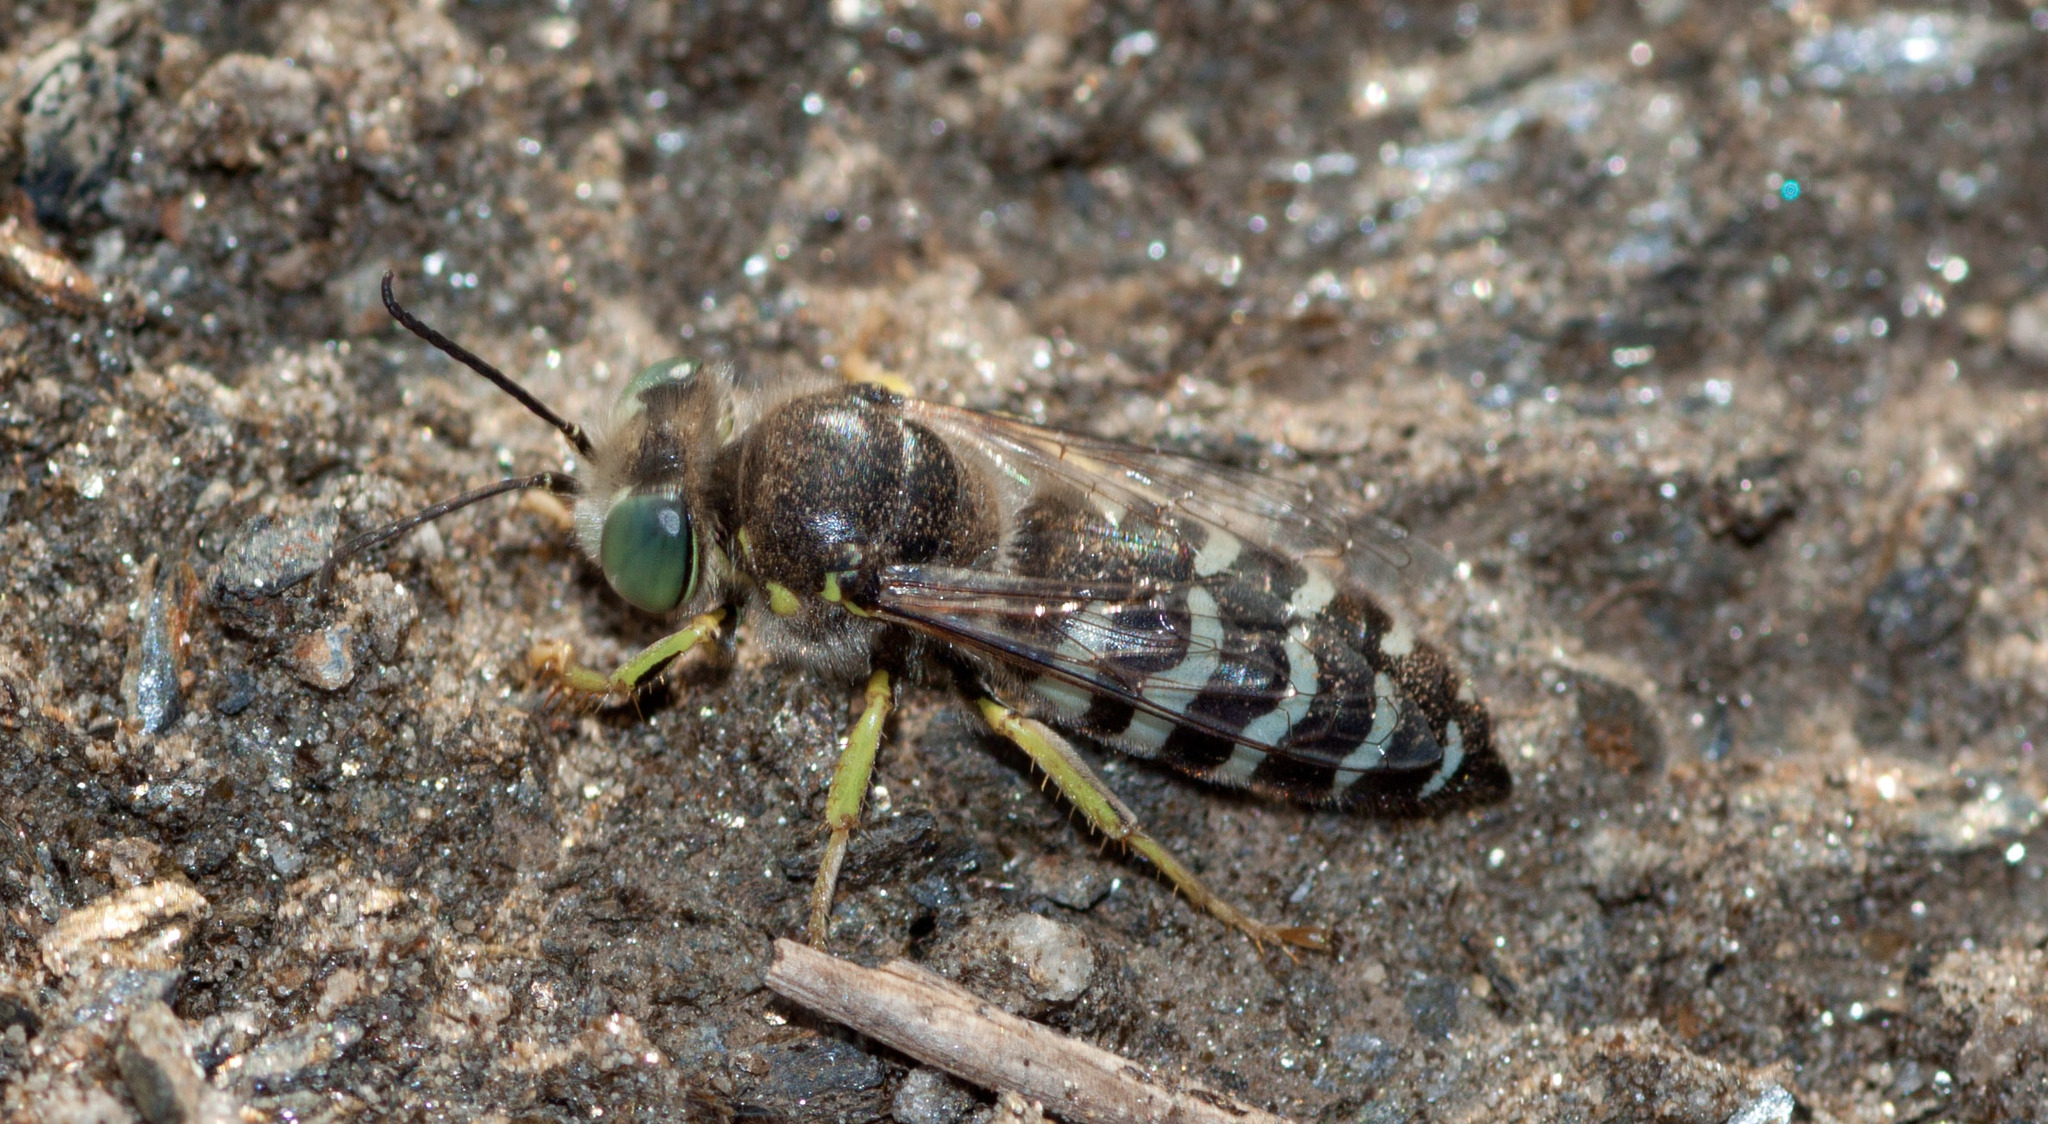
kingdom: Animalia
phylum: Arthropoda
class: Insecta
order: Hymenoptera
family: Crabronidae
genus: Bembix
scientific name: Bembix americana
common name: American sand wasp
